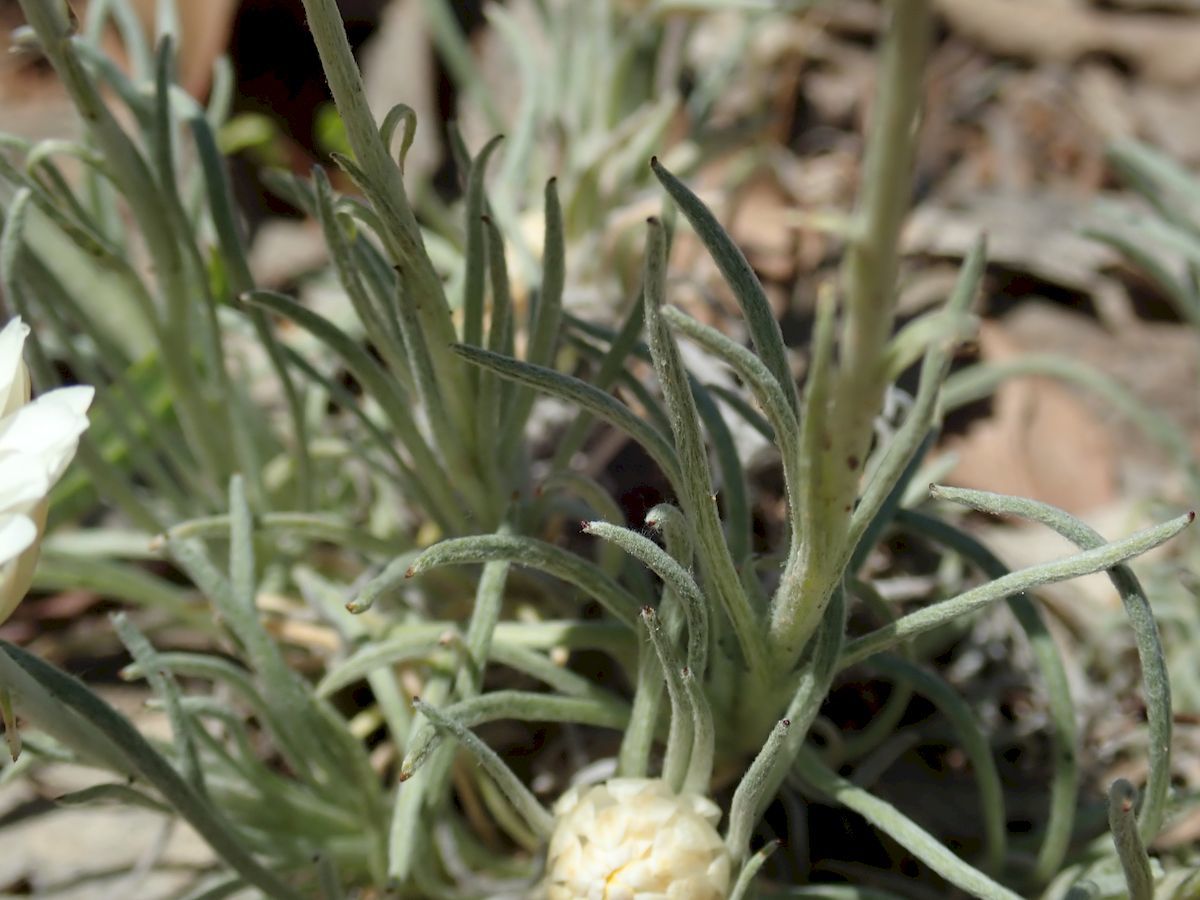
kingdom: Plantae
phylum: Tracheophyta
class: Magnoliopsida
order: Asterales
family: Asteraceae
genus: Leucochrysum
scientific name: Leucochrysum albicans
